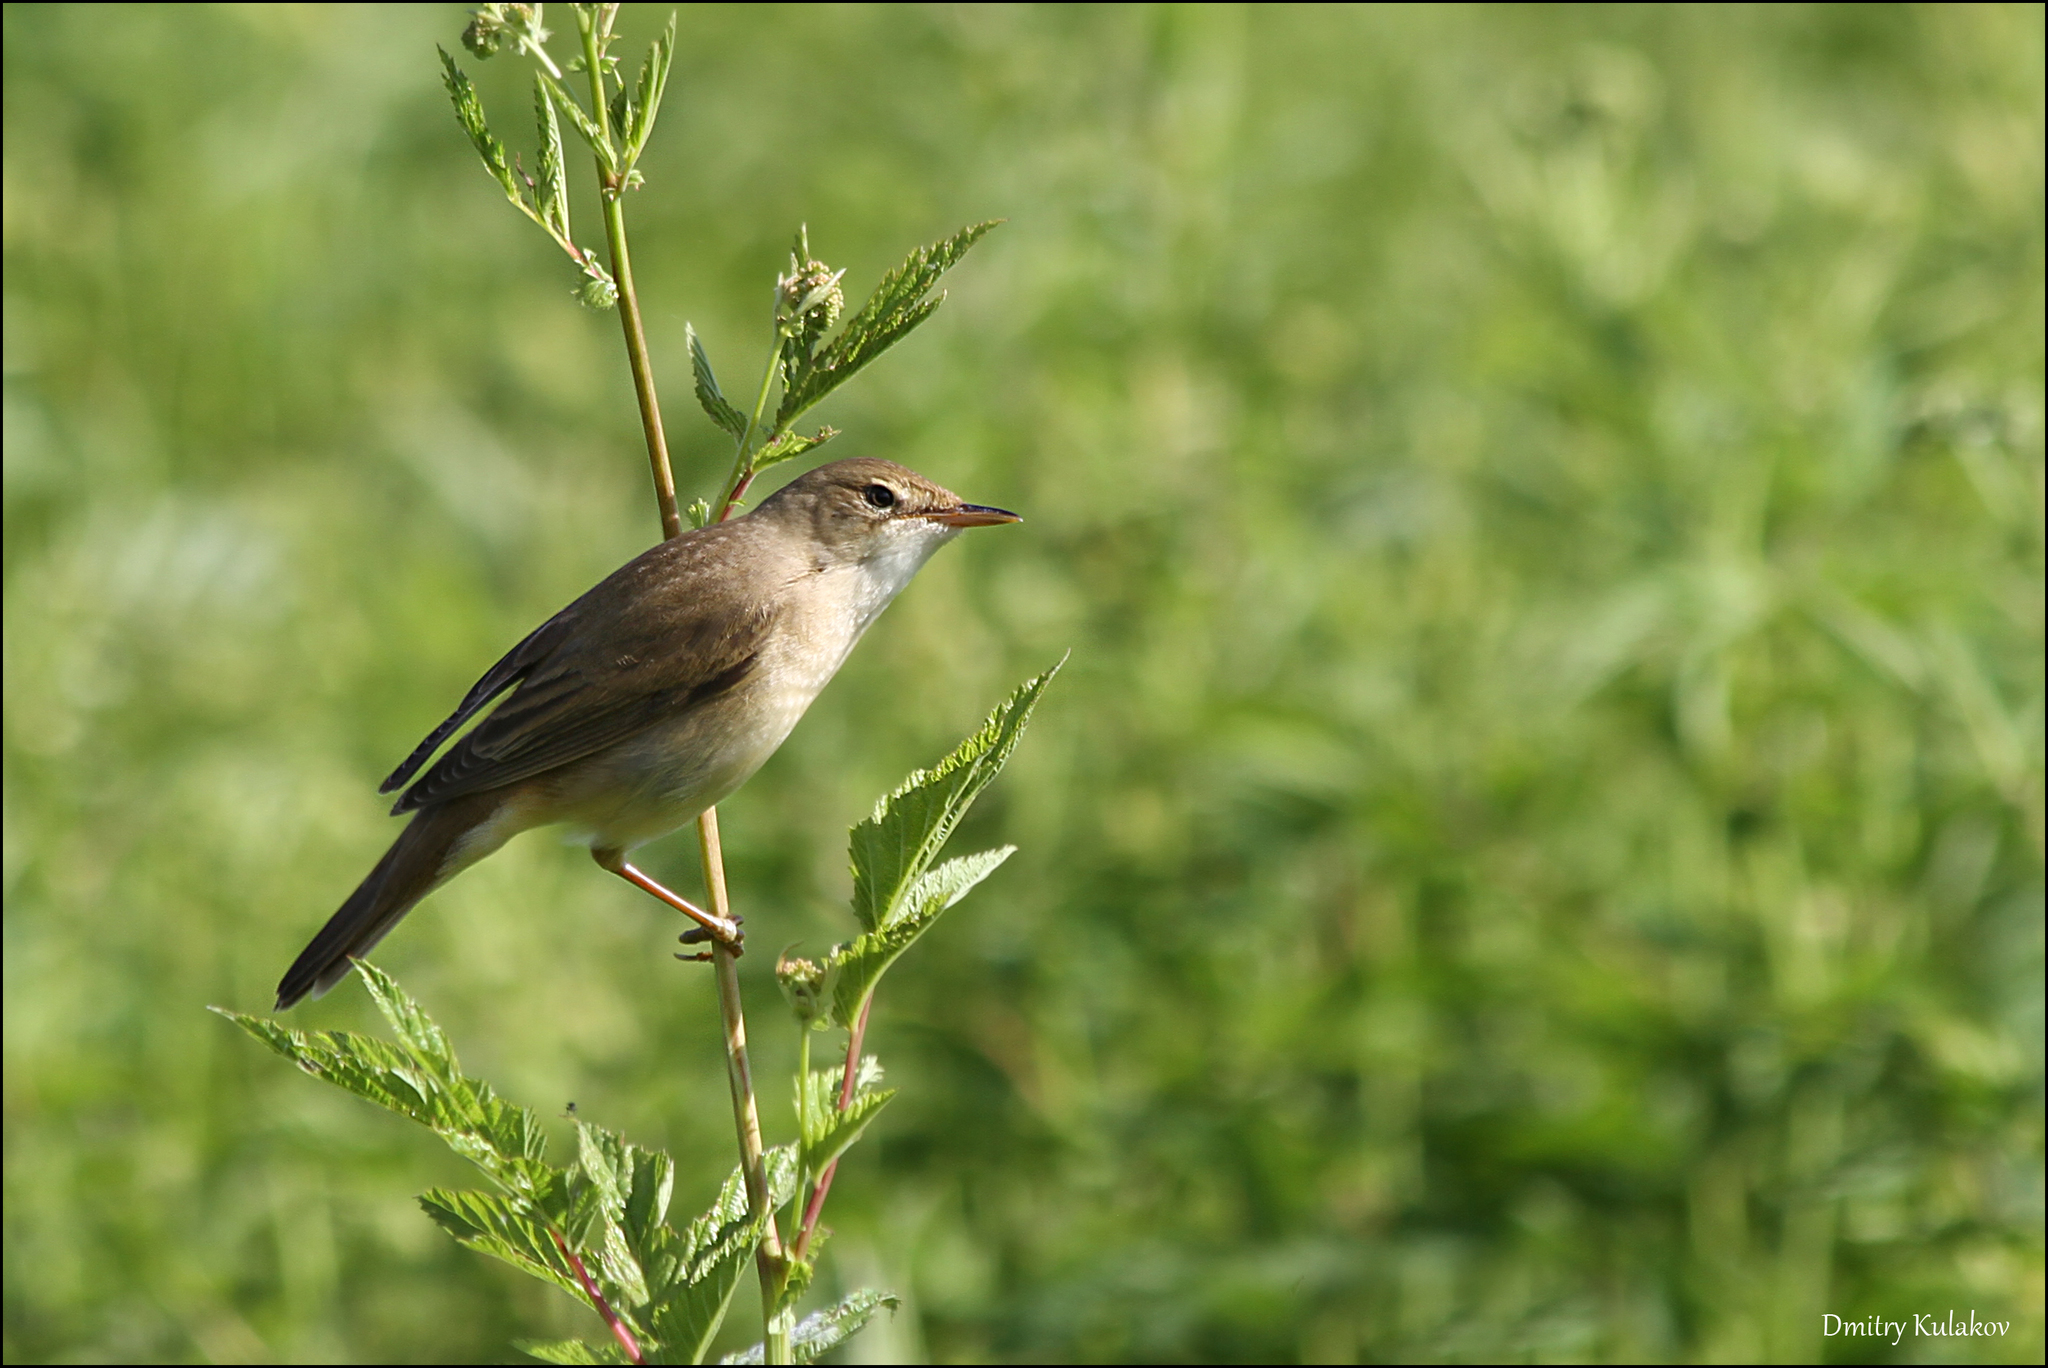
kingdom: Animalia
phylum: Chordata
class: Aves
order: Passeriformes
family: Acrocephalidae
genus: Acrocephalus
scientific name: Acrocephalus dumetorum
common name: Blyth's reed warbler
